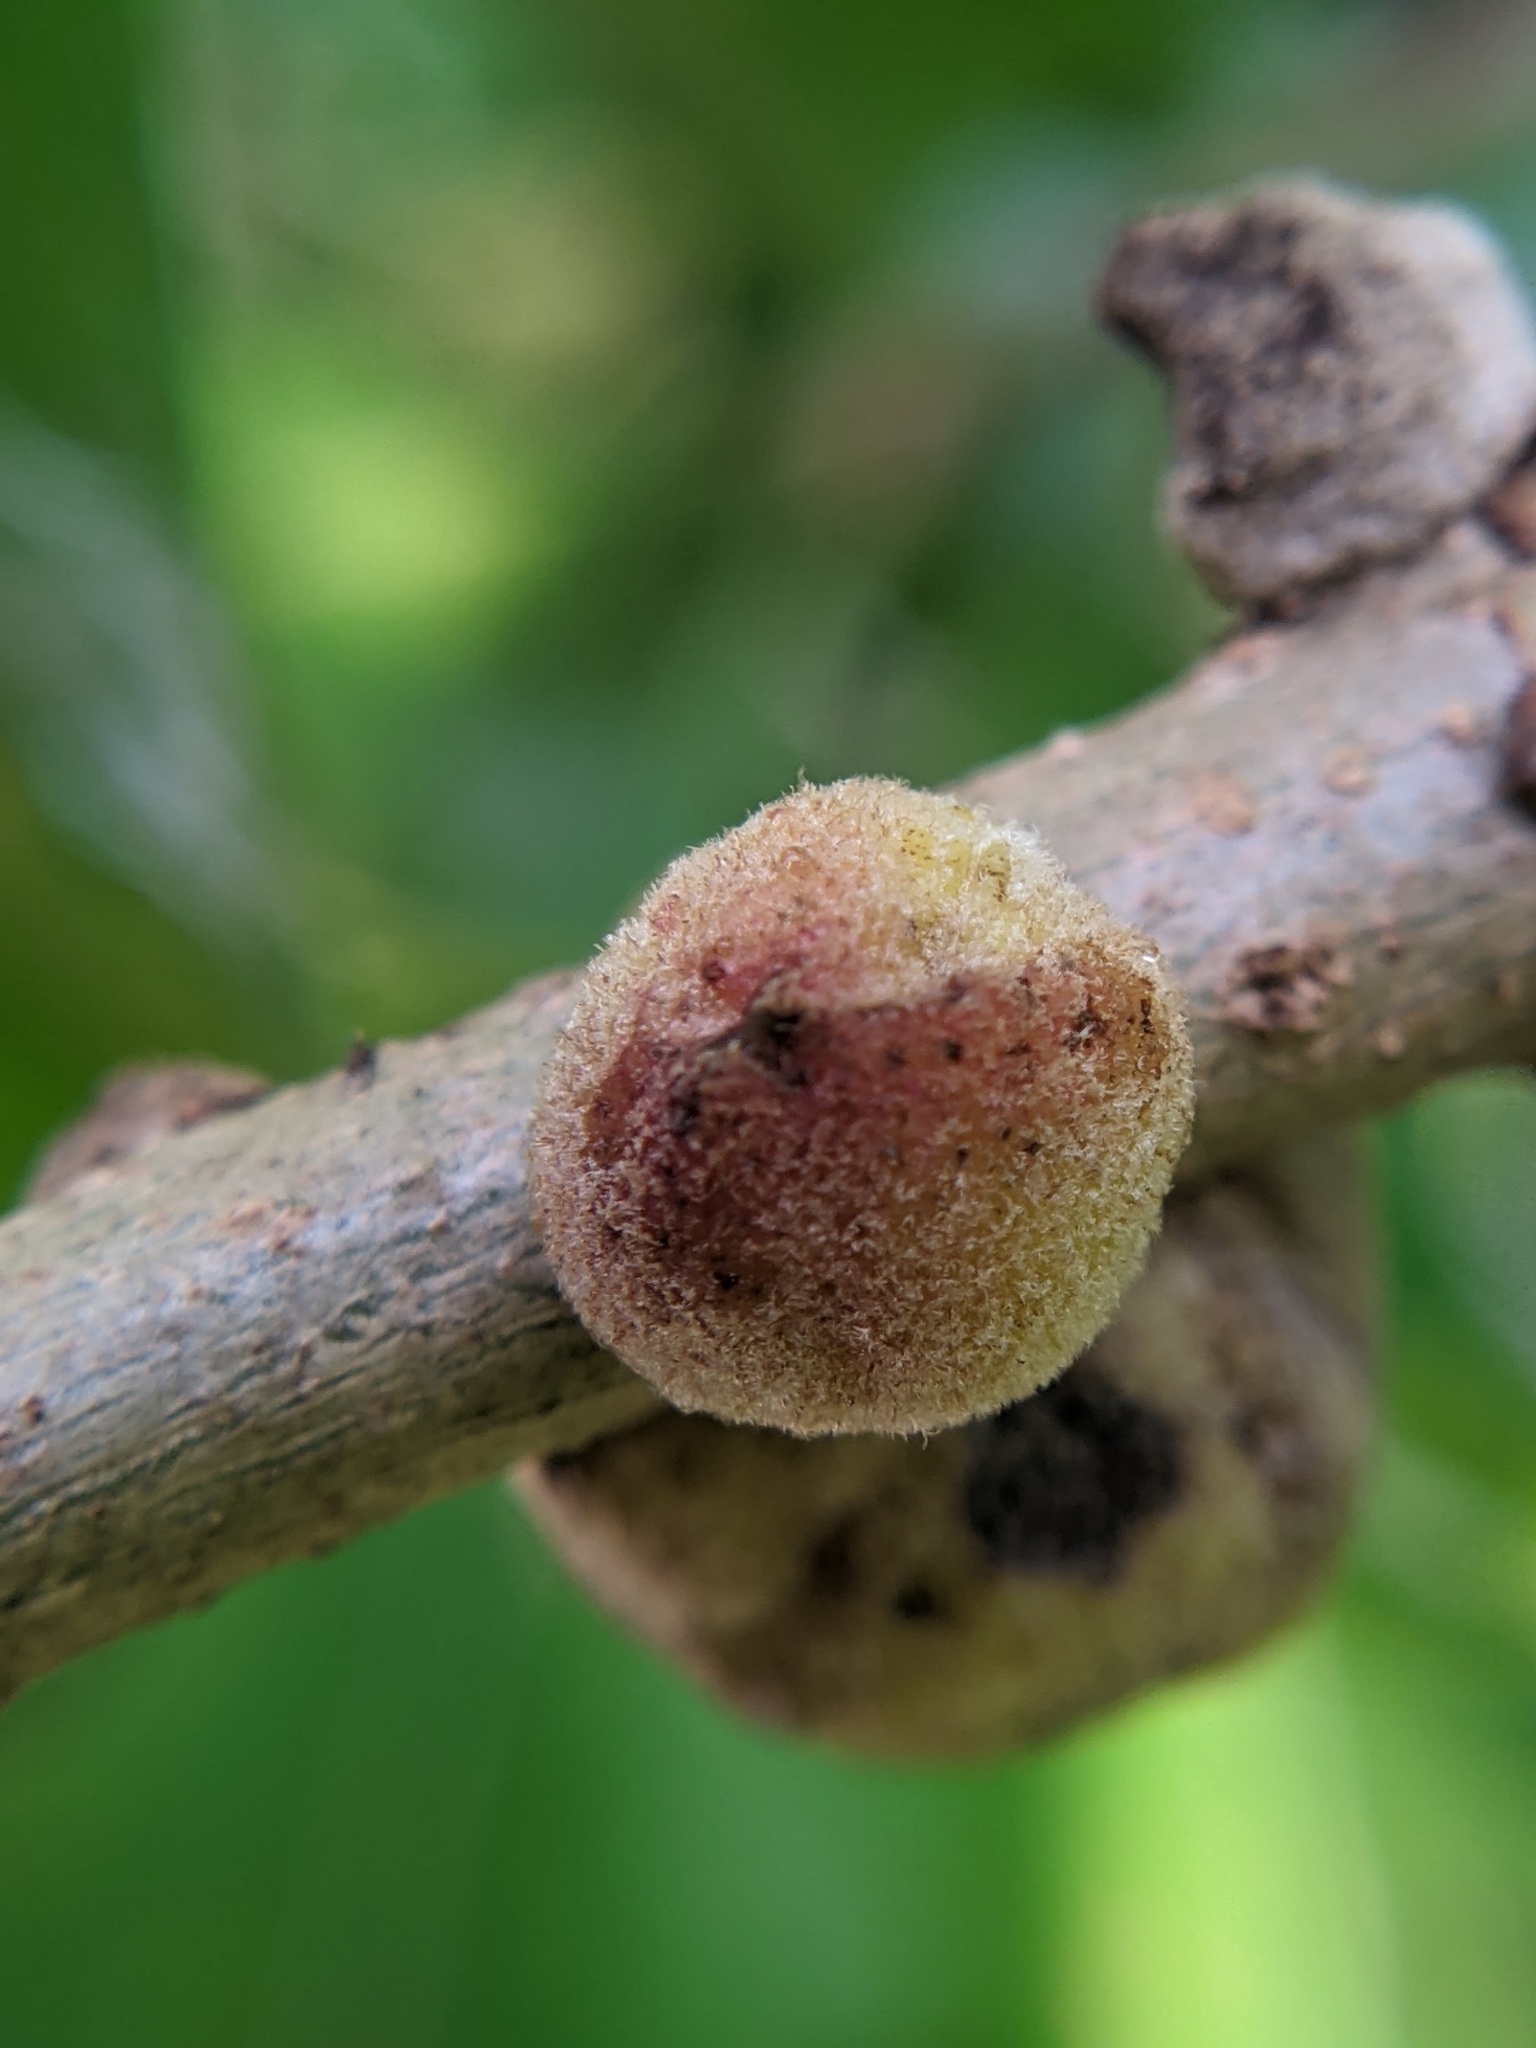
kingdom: Animalia
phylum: Arthropoda
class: Insecta
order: Hymenoptera
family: Cynipidae
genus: Disholcaspis
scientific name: Disholcaspis
